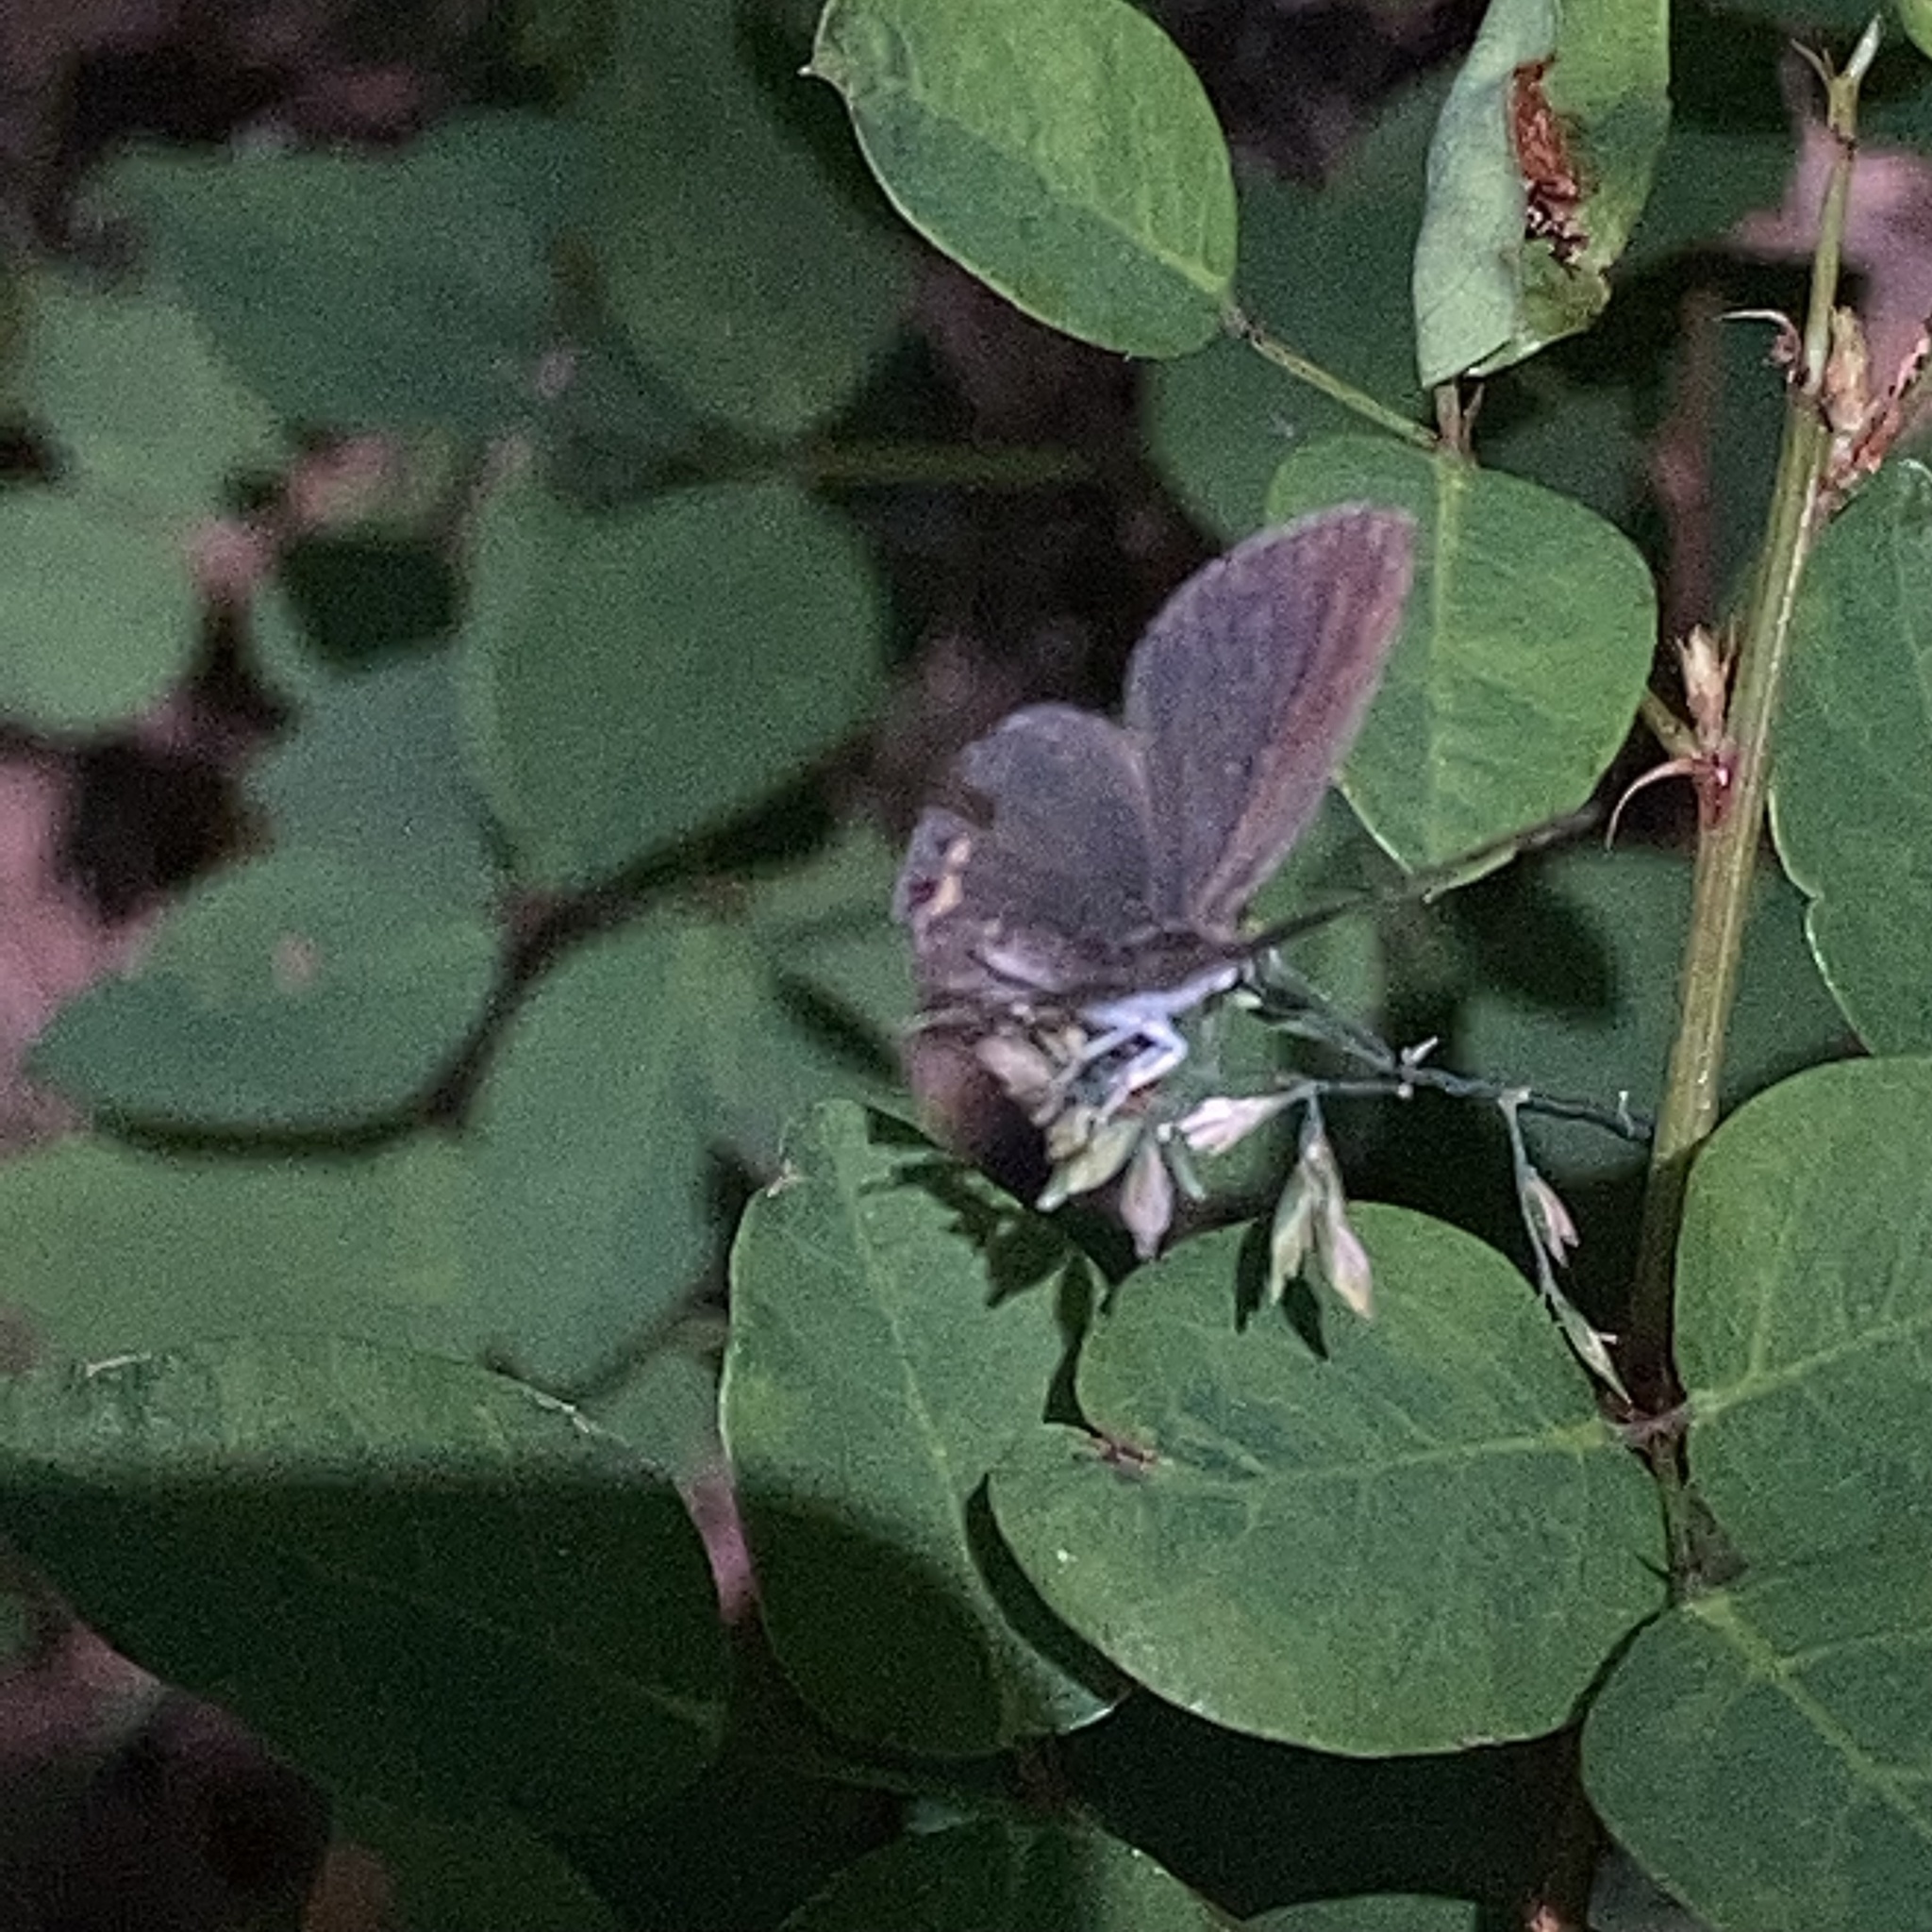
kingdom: Animalia
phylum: Arthropoda
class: Insecta
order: Lepidoptera
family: Lycaenidae
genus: Elkalyce
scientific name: Elkalyce comyntas
